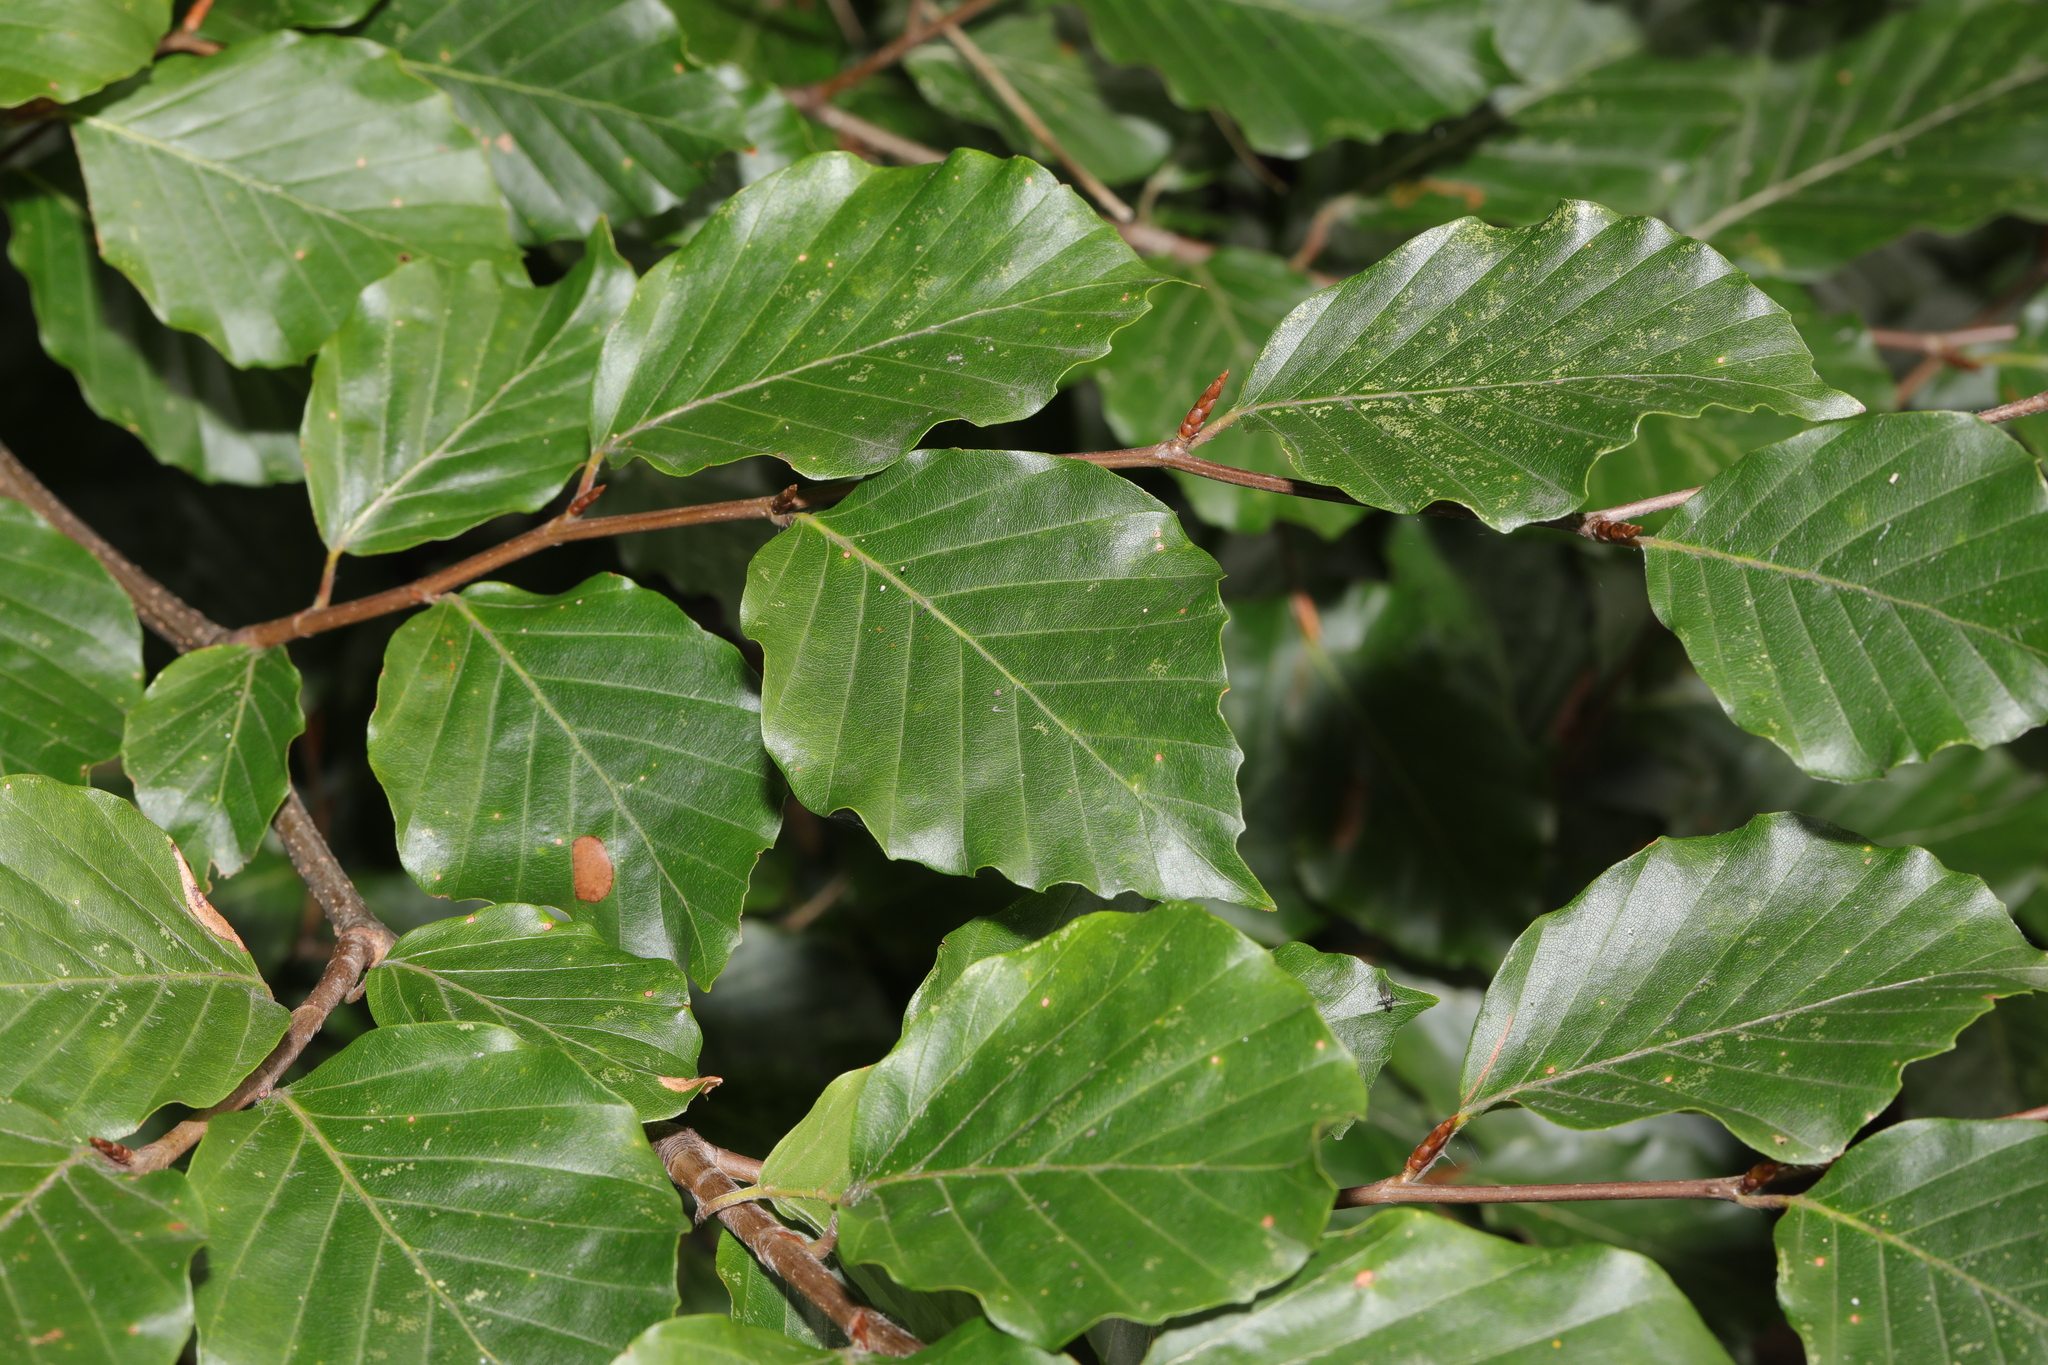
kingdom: Plantae
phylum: Tracheophyta
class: Magnoliopsida
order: Fagales
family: Fagaceae
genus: Fagus
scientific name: Fagus sylvatica
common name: Beech
